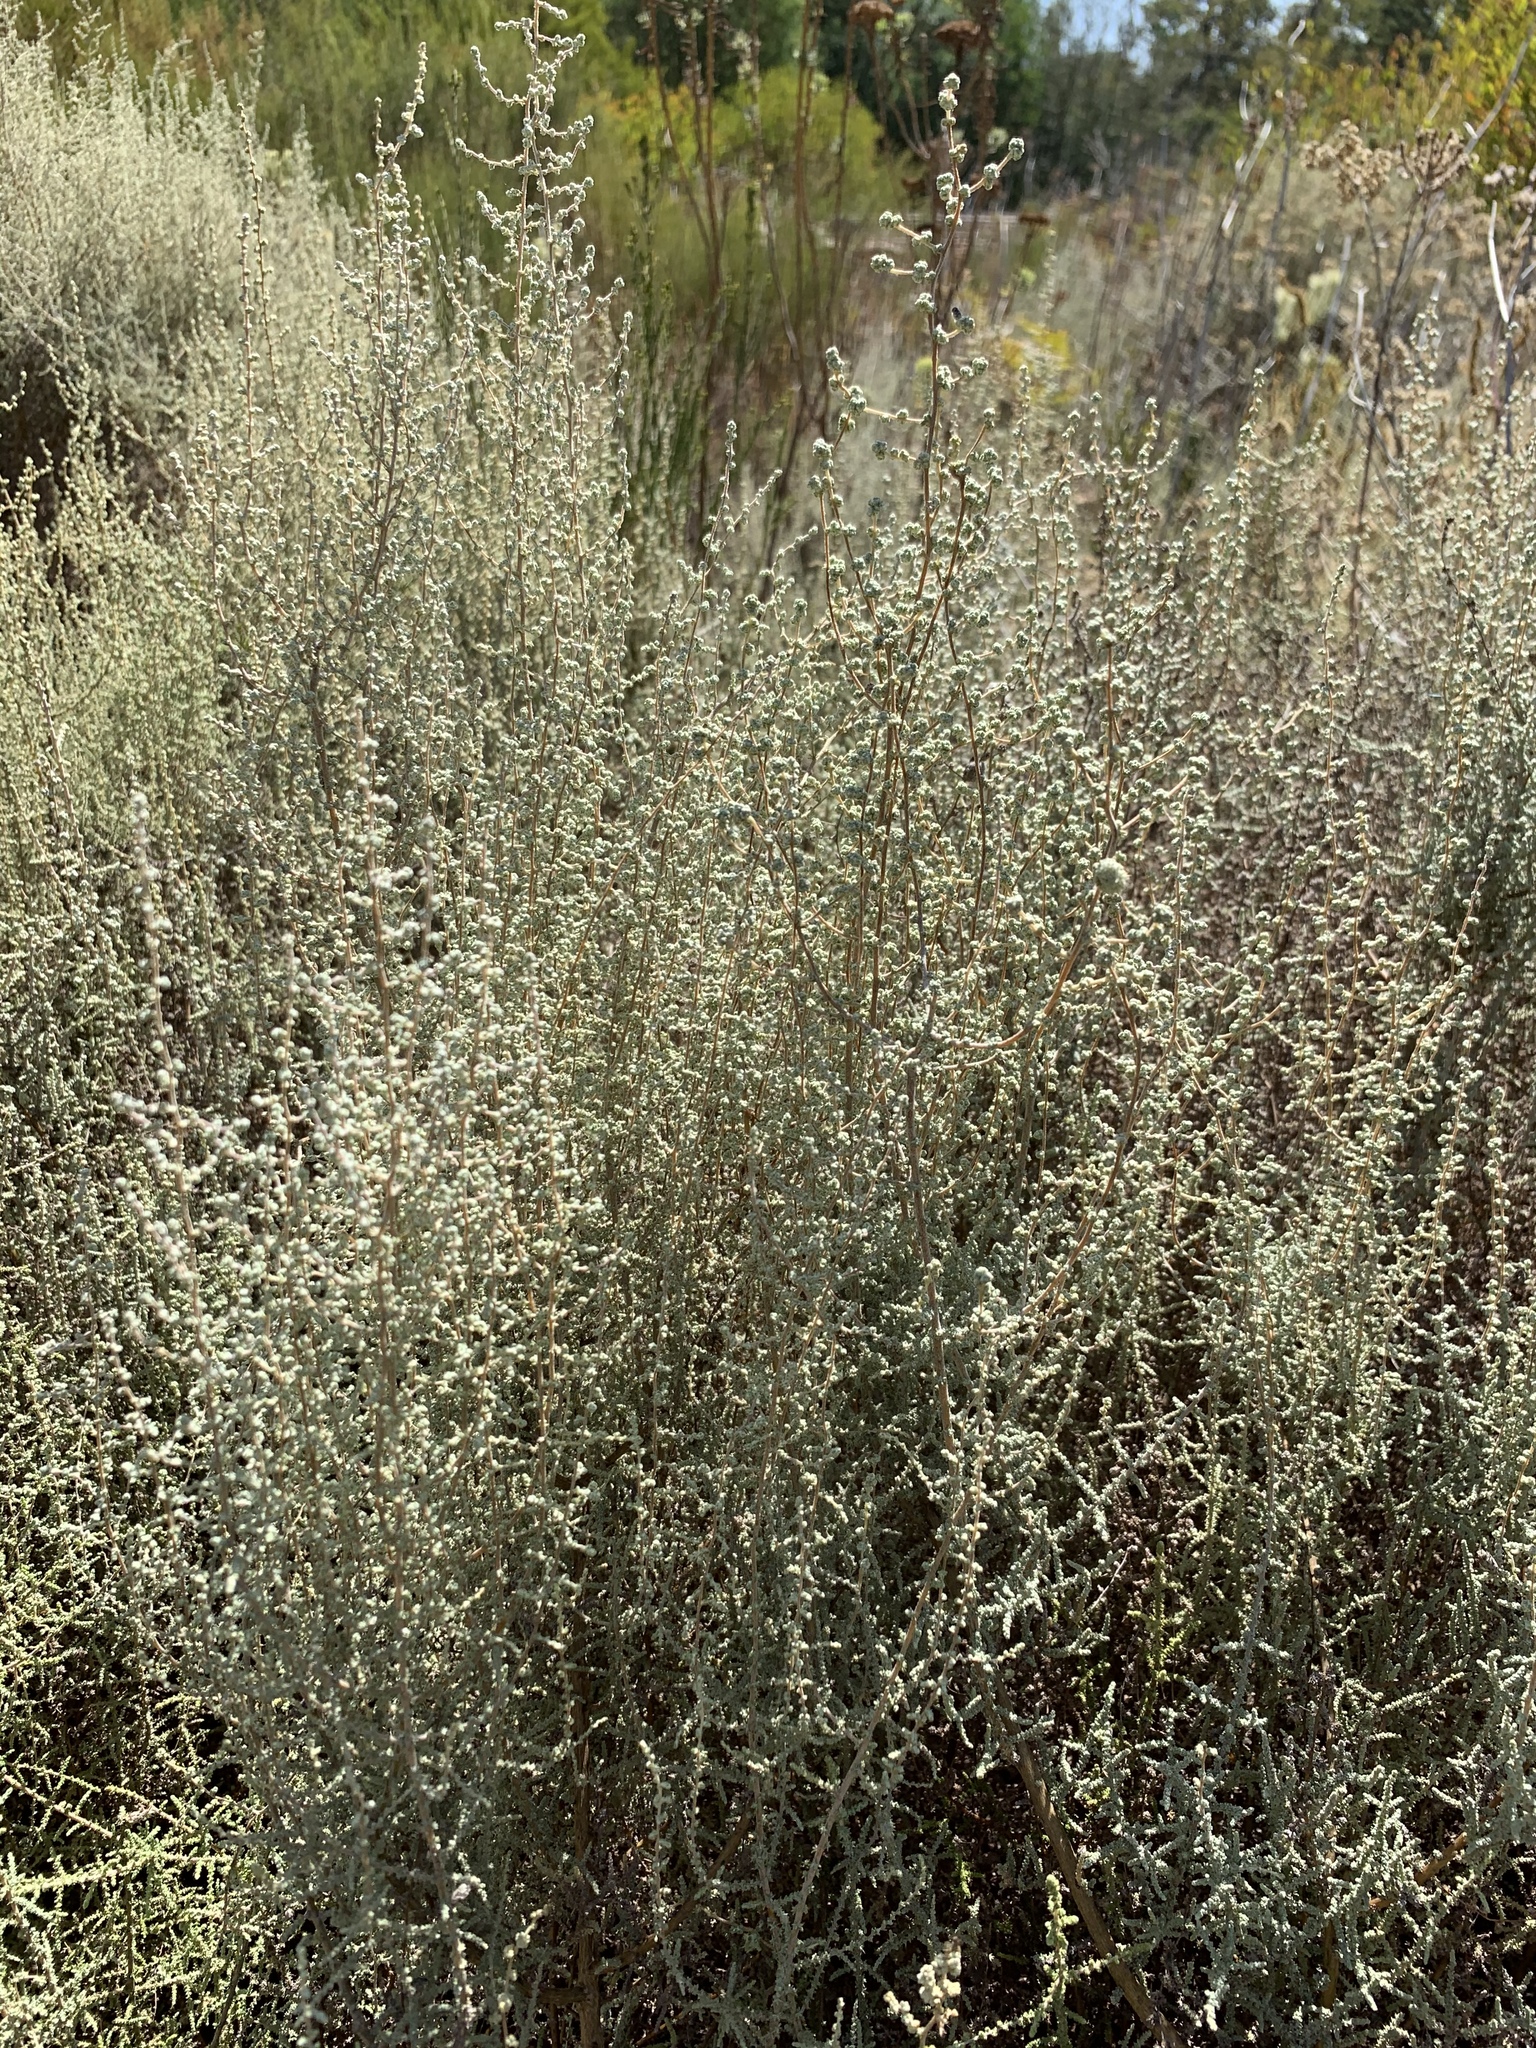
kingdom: Plantae
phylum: Tracheophyta
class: Magnoliopsida
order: Asterales
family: Asteraceae
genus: Seriphium
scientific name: Seriphium plumosum
